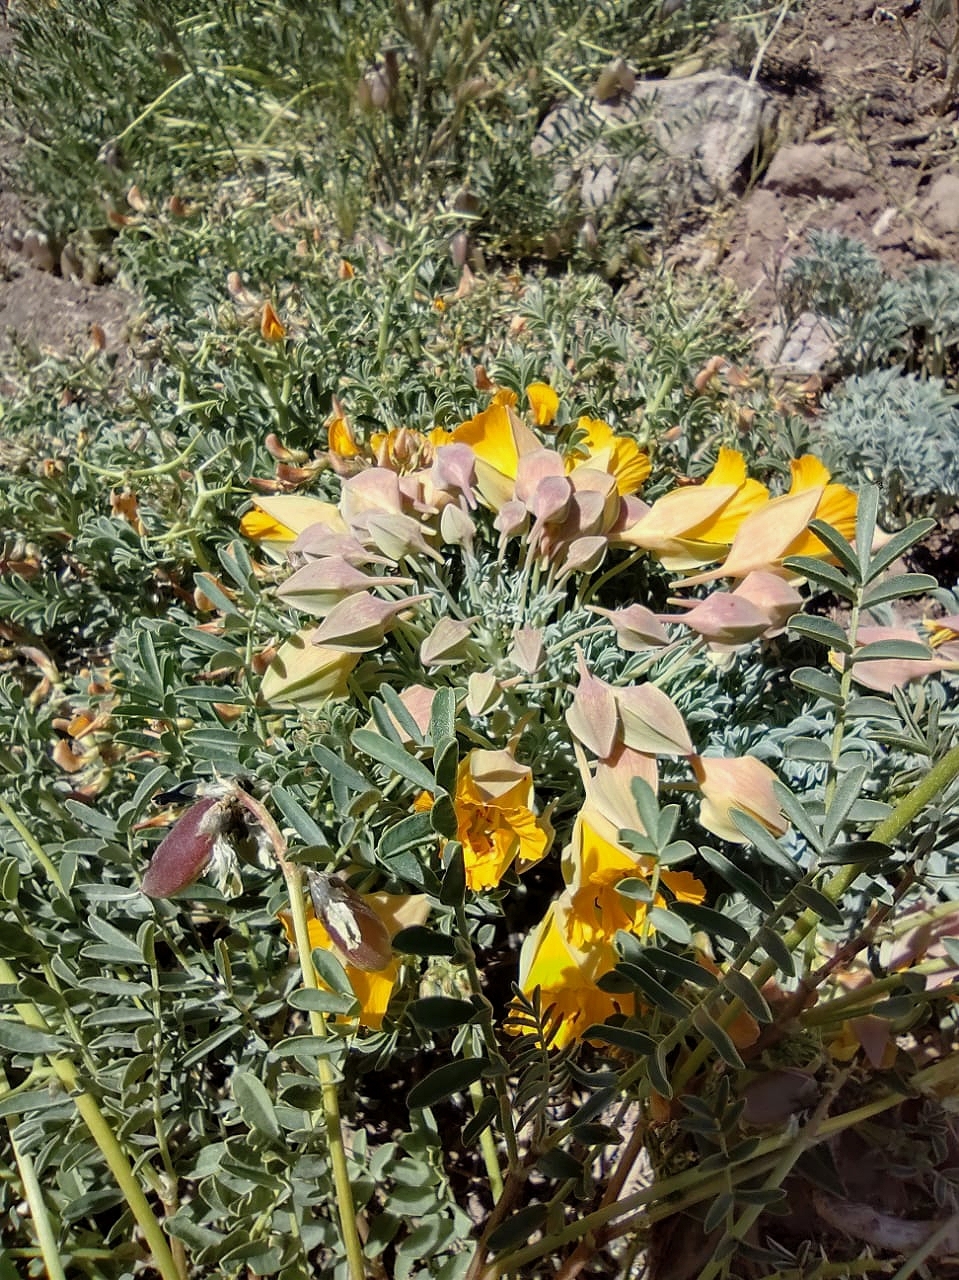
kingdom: Plantae
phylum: Tracheophyta
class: Magnoliopsida
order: Brassicales
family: Tropaeolaceae
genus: Tropaeolum
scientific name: Tropaeolum polyphyllum
